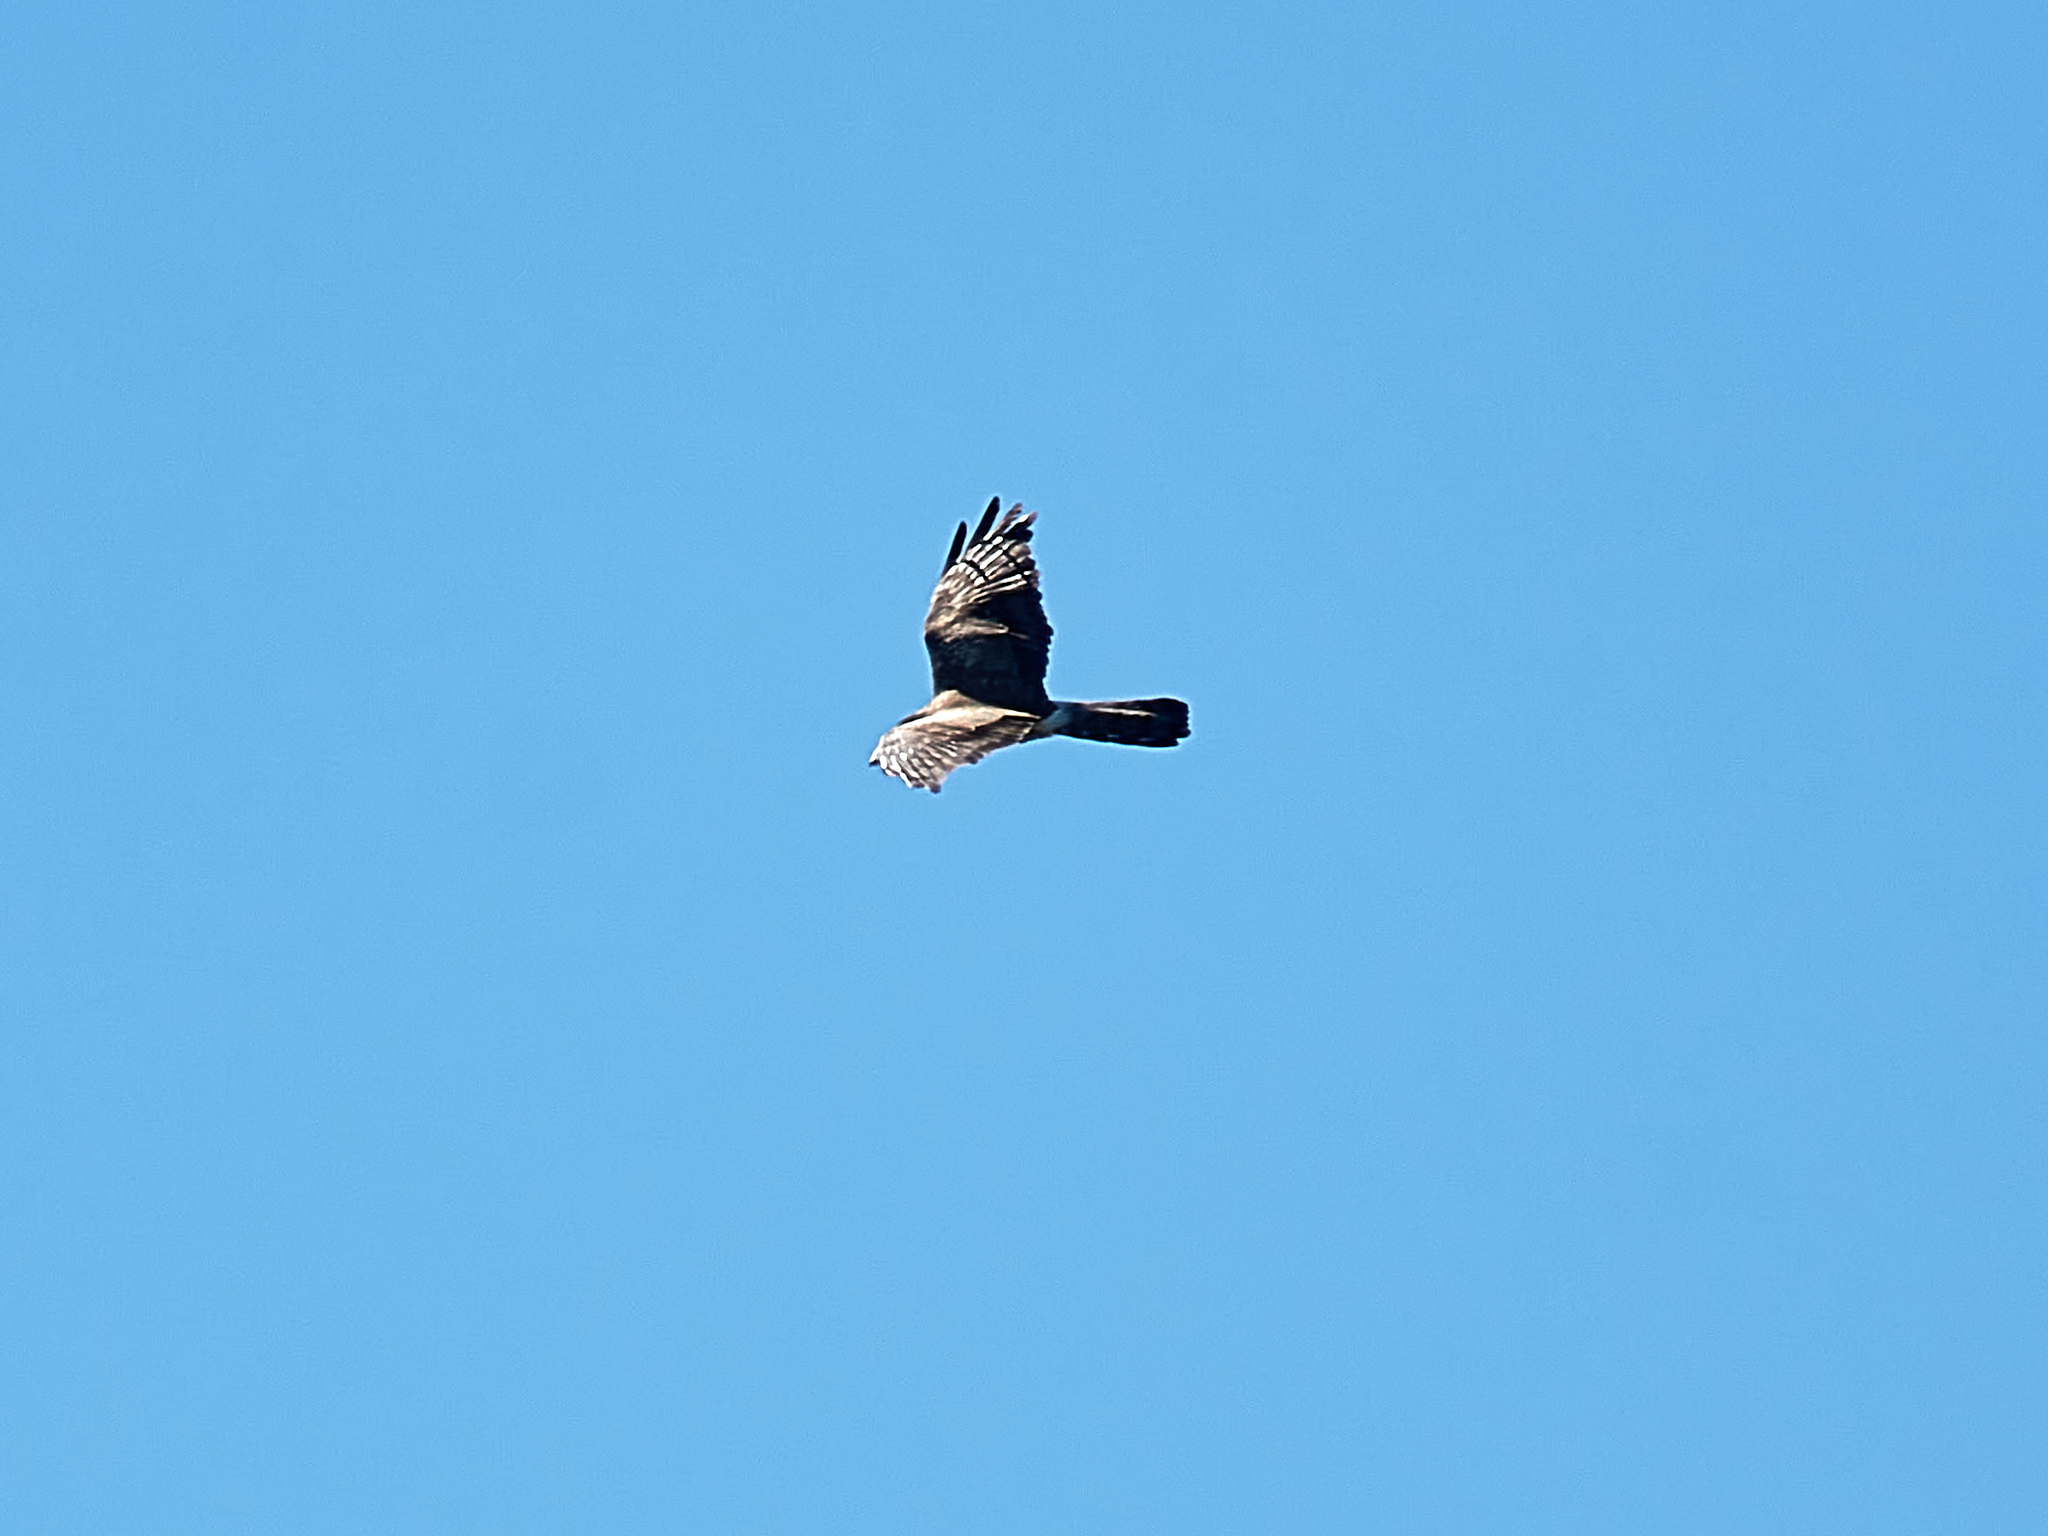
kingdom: Animalia
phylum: Chordata
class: Aves
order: Accipitriformes
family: Accipitridae
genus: Circus
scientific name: Circus pygargus
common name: Montagu's harrier
